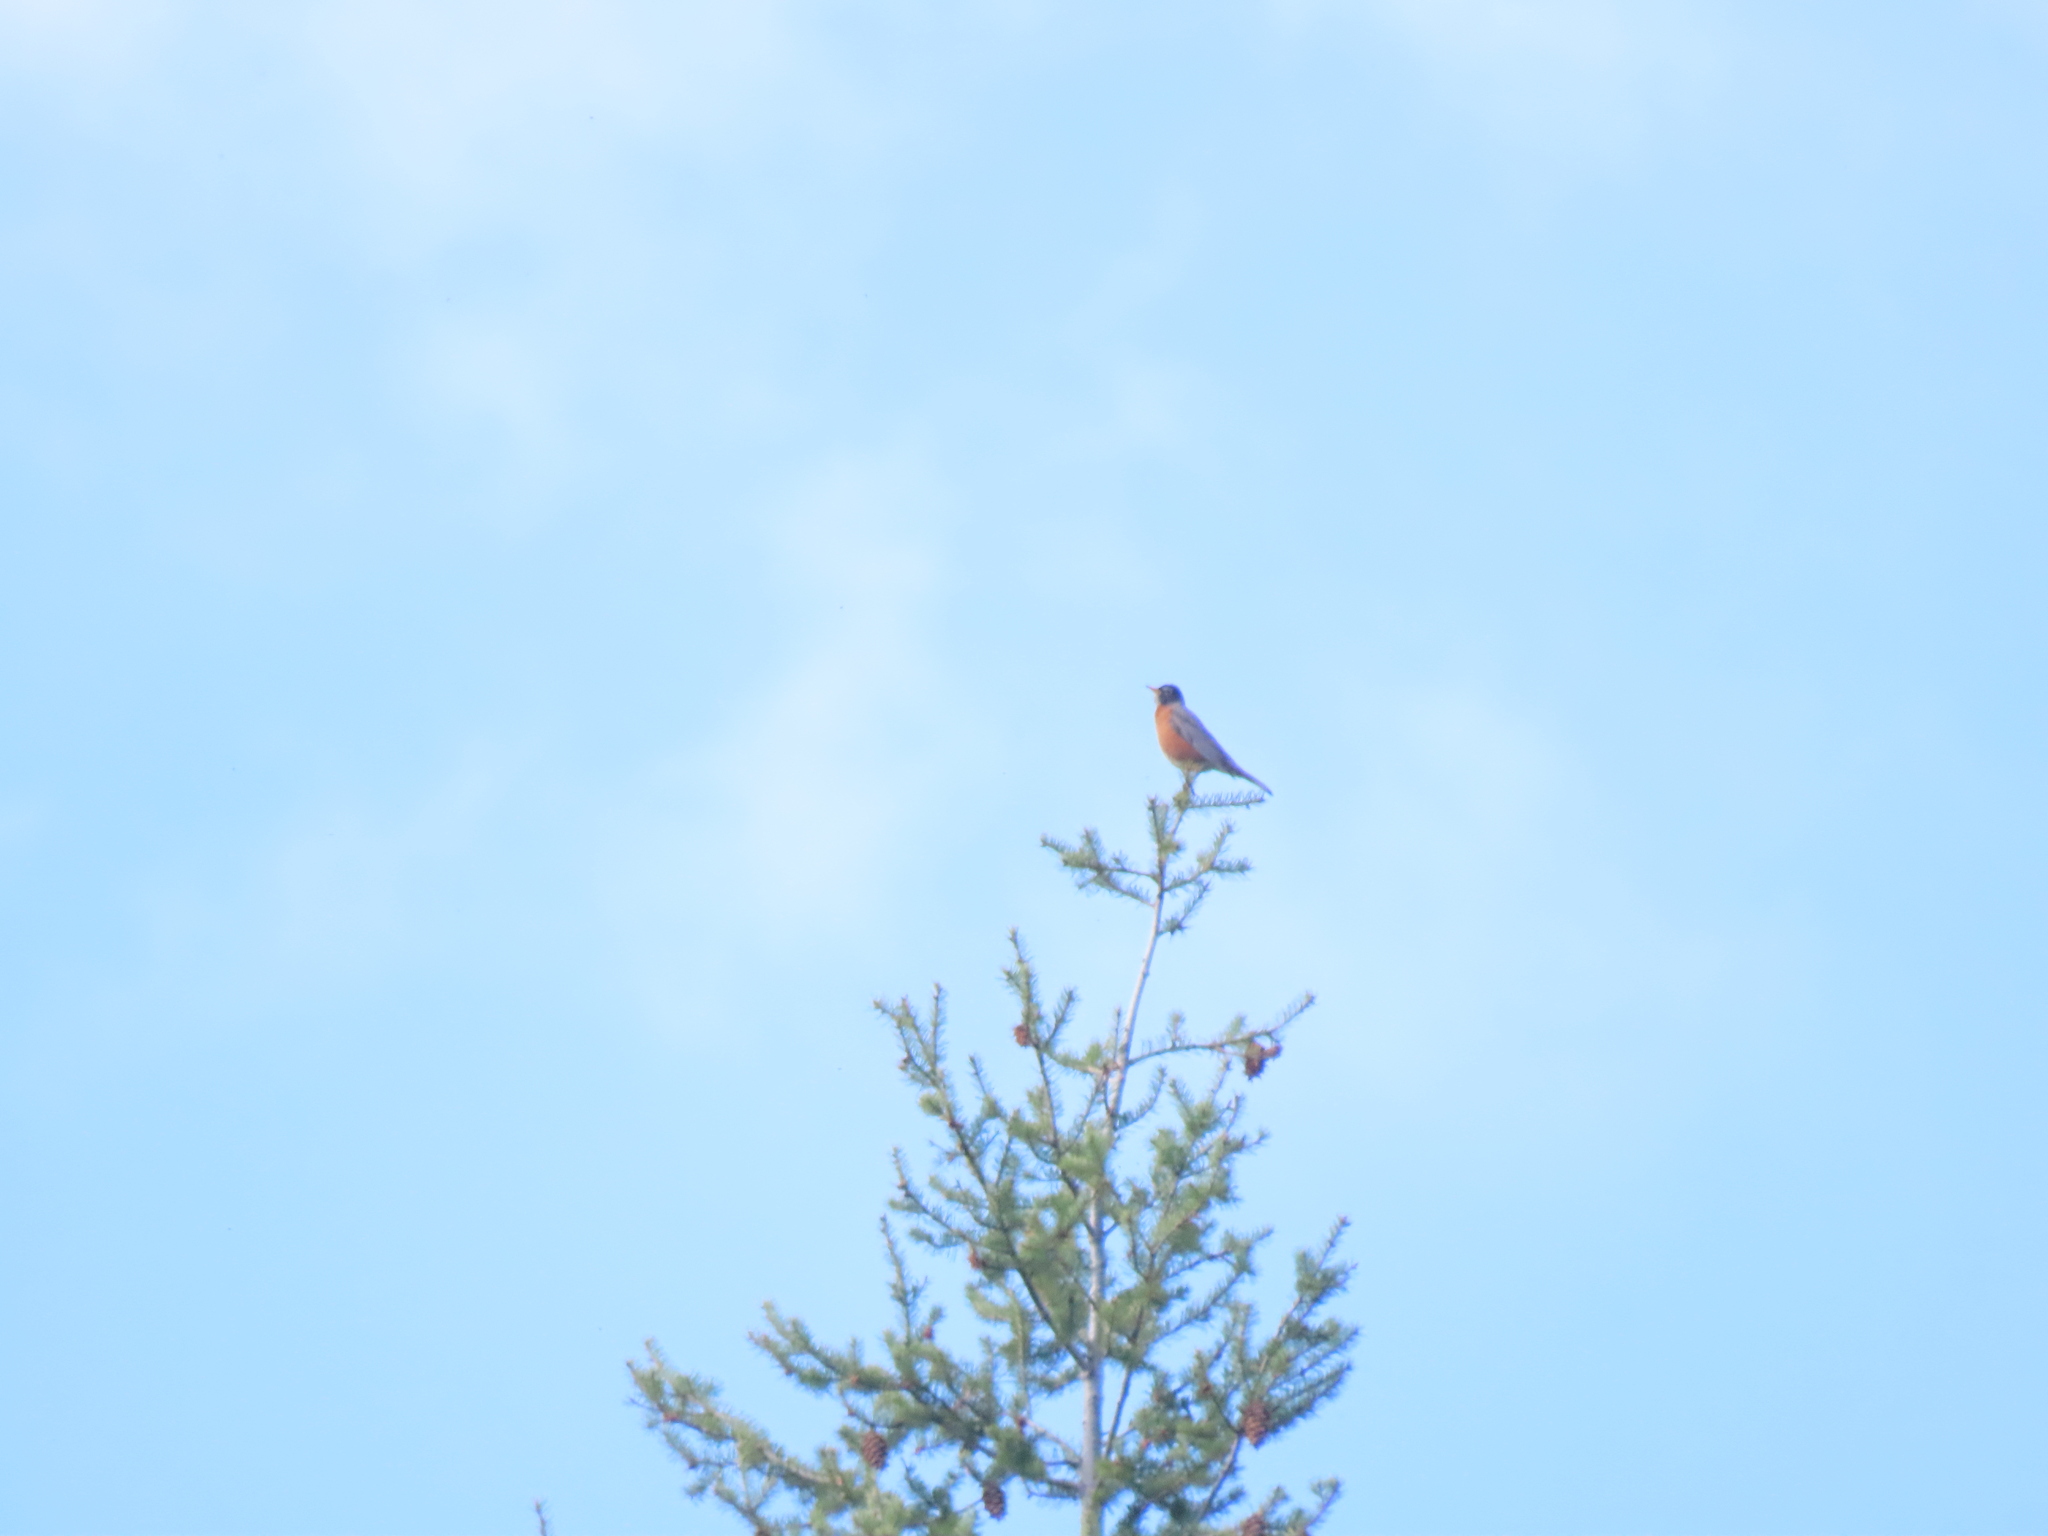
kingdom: Animalia
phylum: Chordata
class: Aves
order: Passeriformes
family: Turdidae
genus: Turdus
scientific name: Turdus migratorius
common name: American robin
